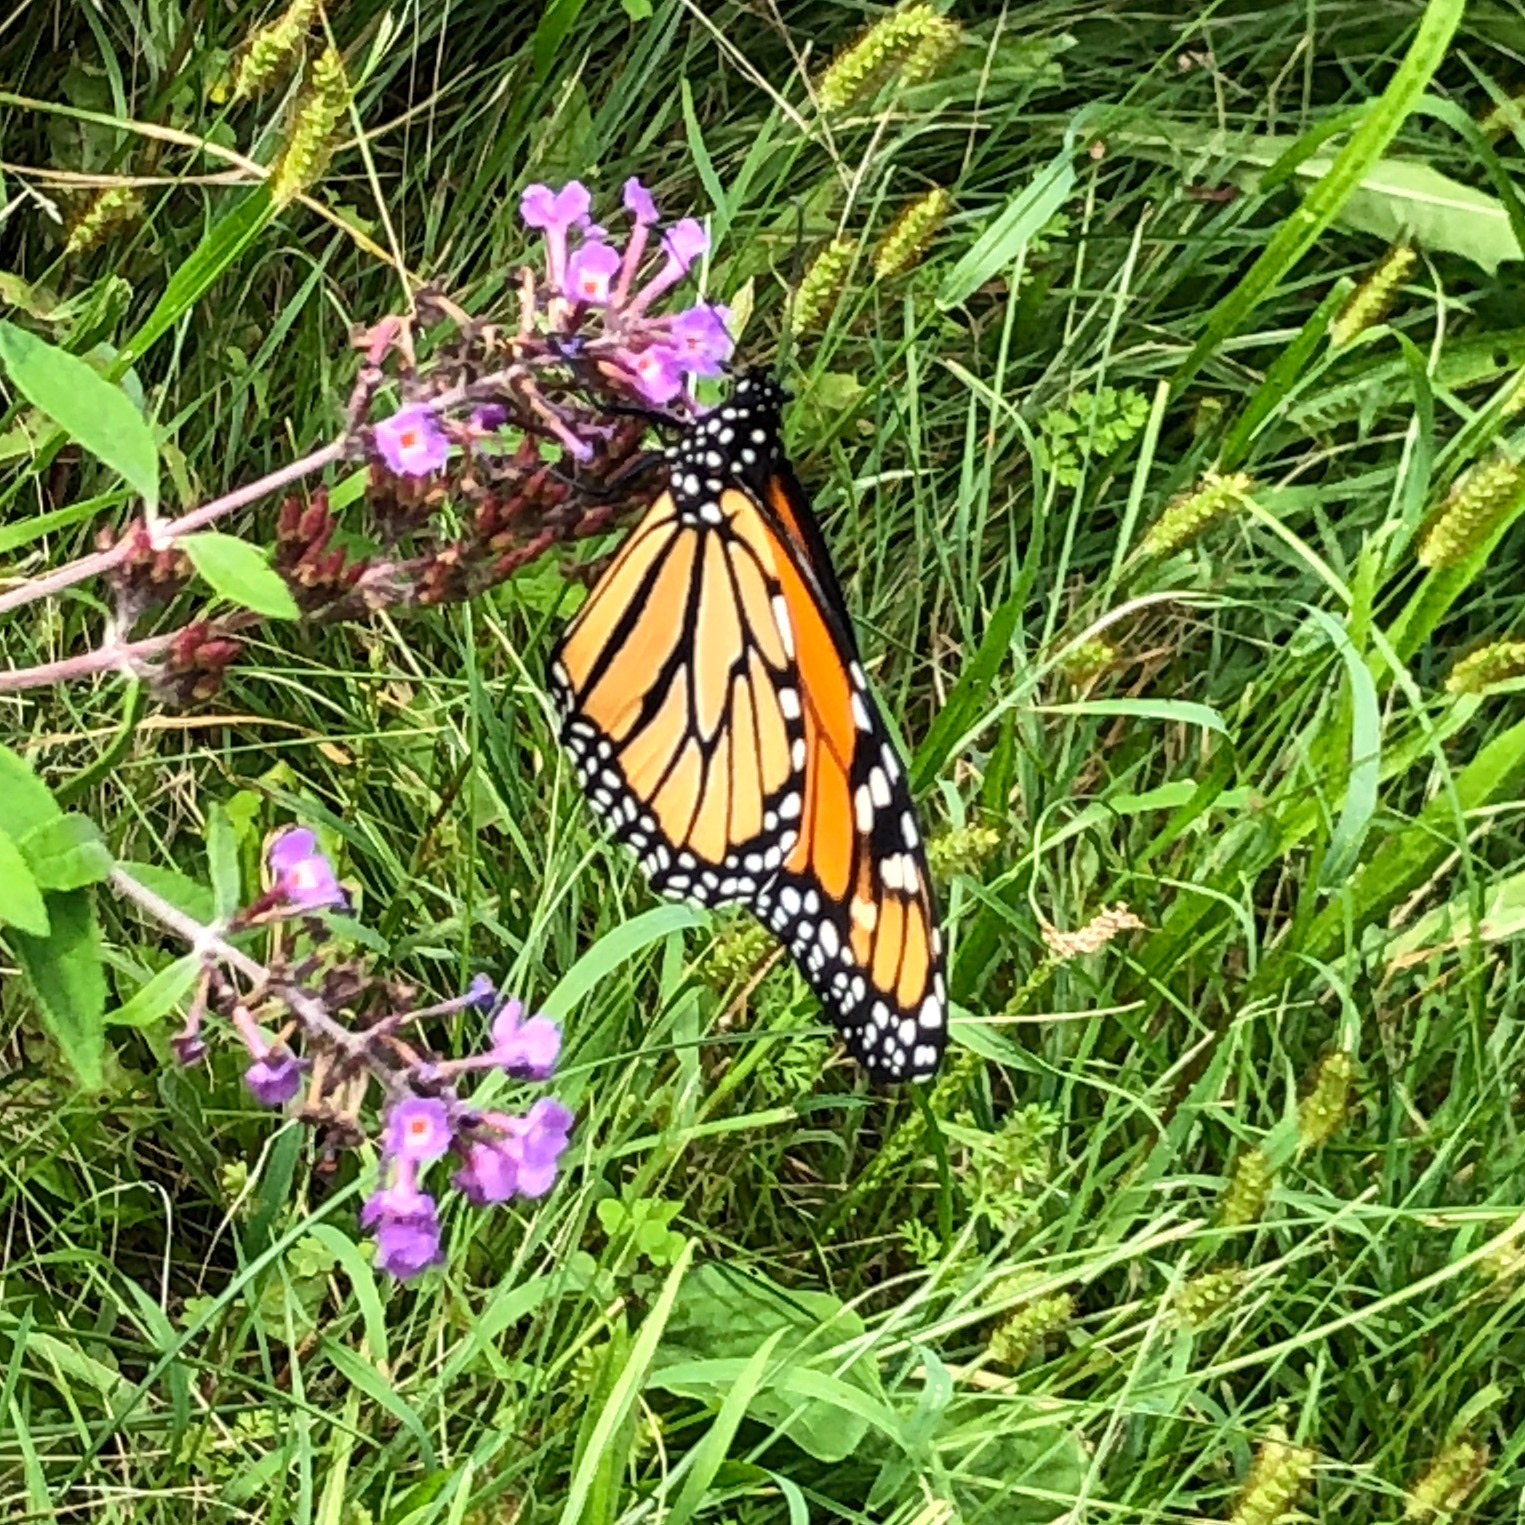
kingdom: Animalia
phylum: Arthropoda
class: Insecta
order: Lepidoptera
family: Nymphalidae
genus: Danaus
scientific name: Danaus plexippus
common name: Monarch
